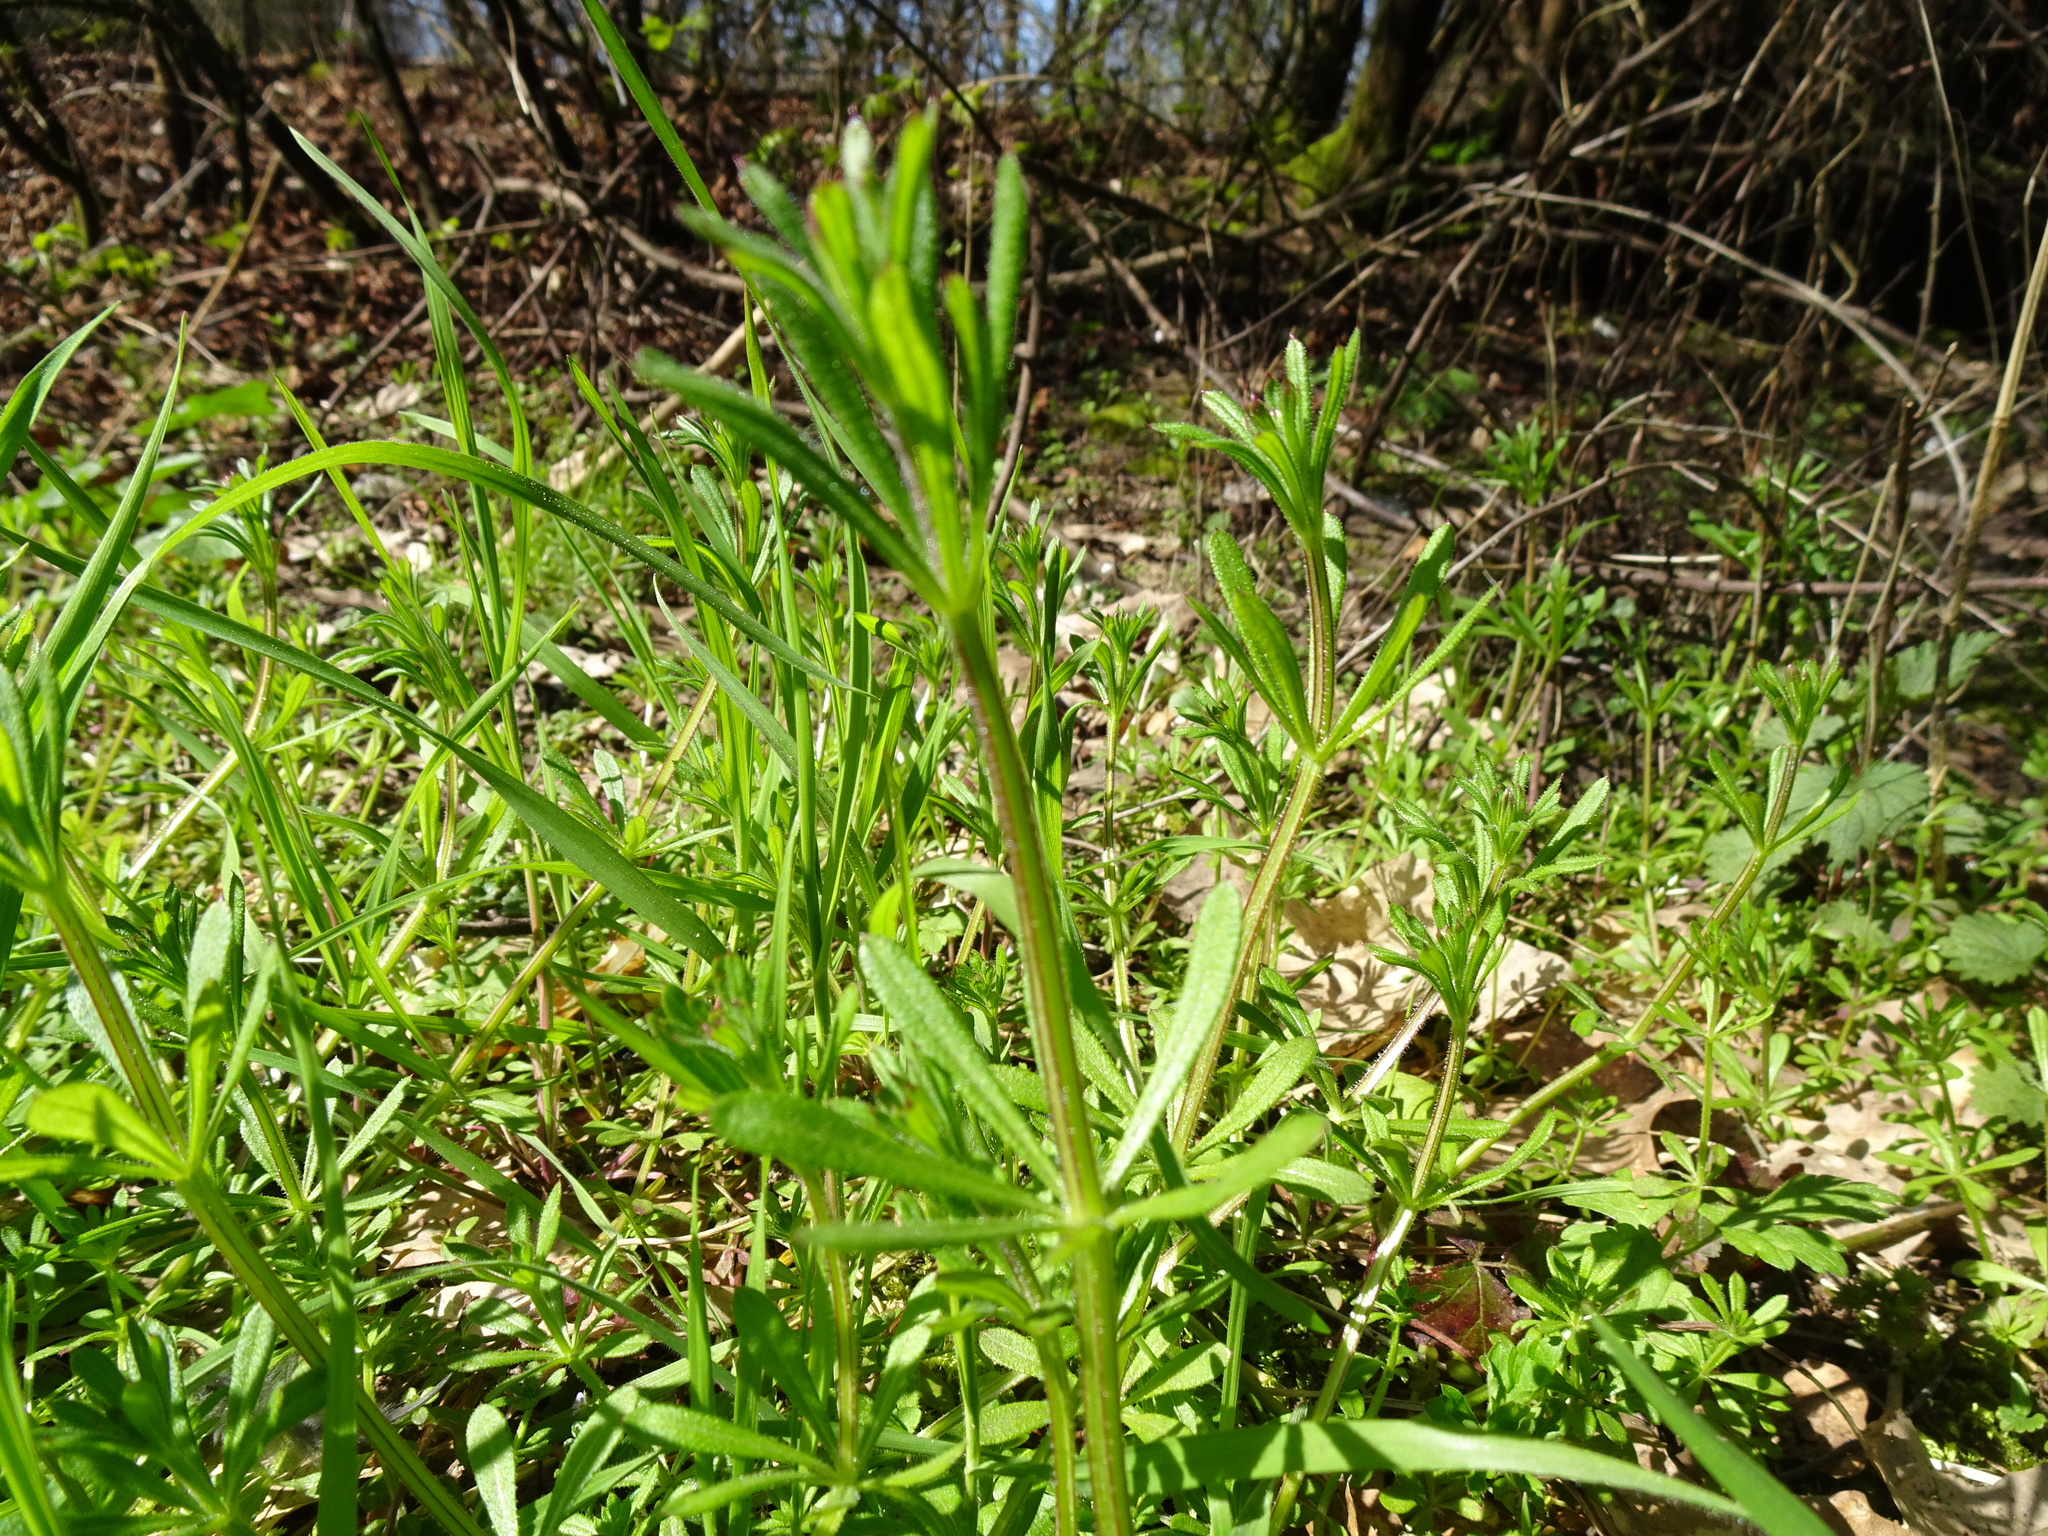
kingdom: Plantae
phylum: Tracheophyta
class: Magnoliopsida
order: Gentianales
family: Rubiaceae
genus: Galium
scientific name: Galium aparine
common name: Cleavers
